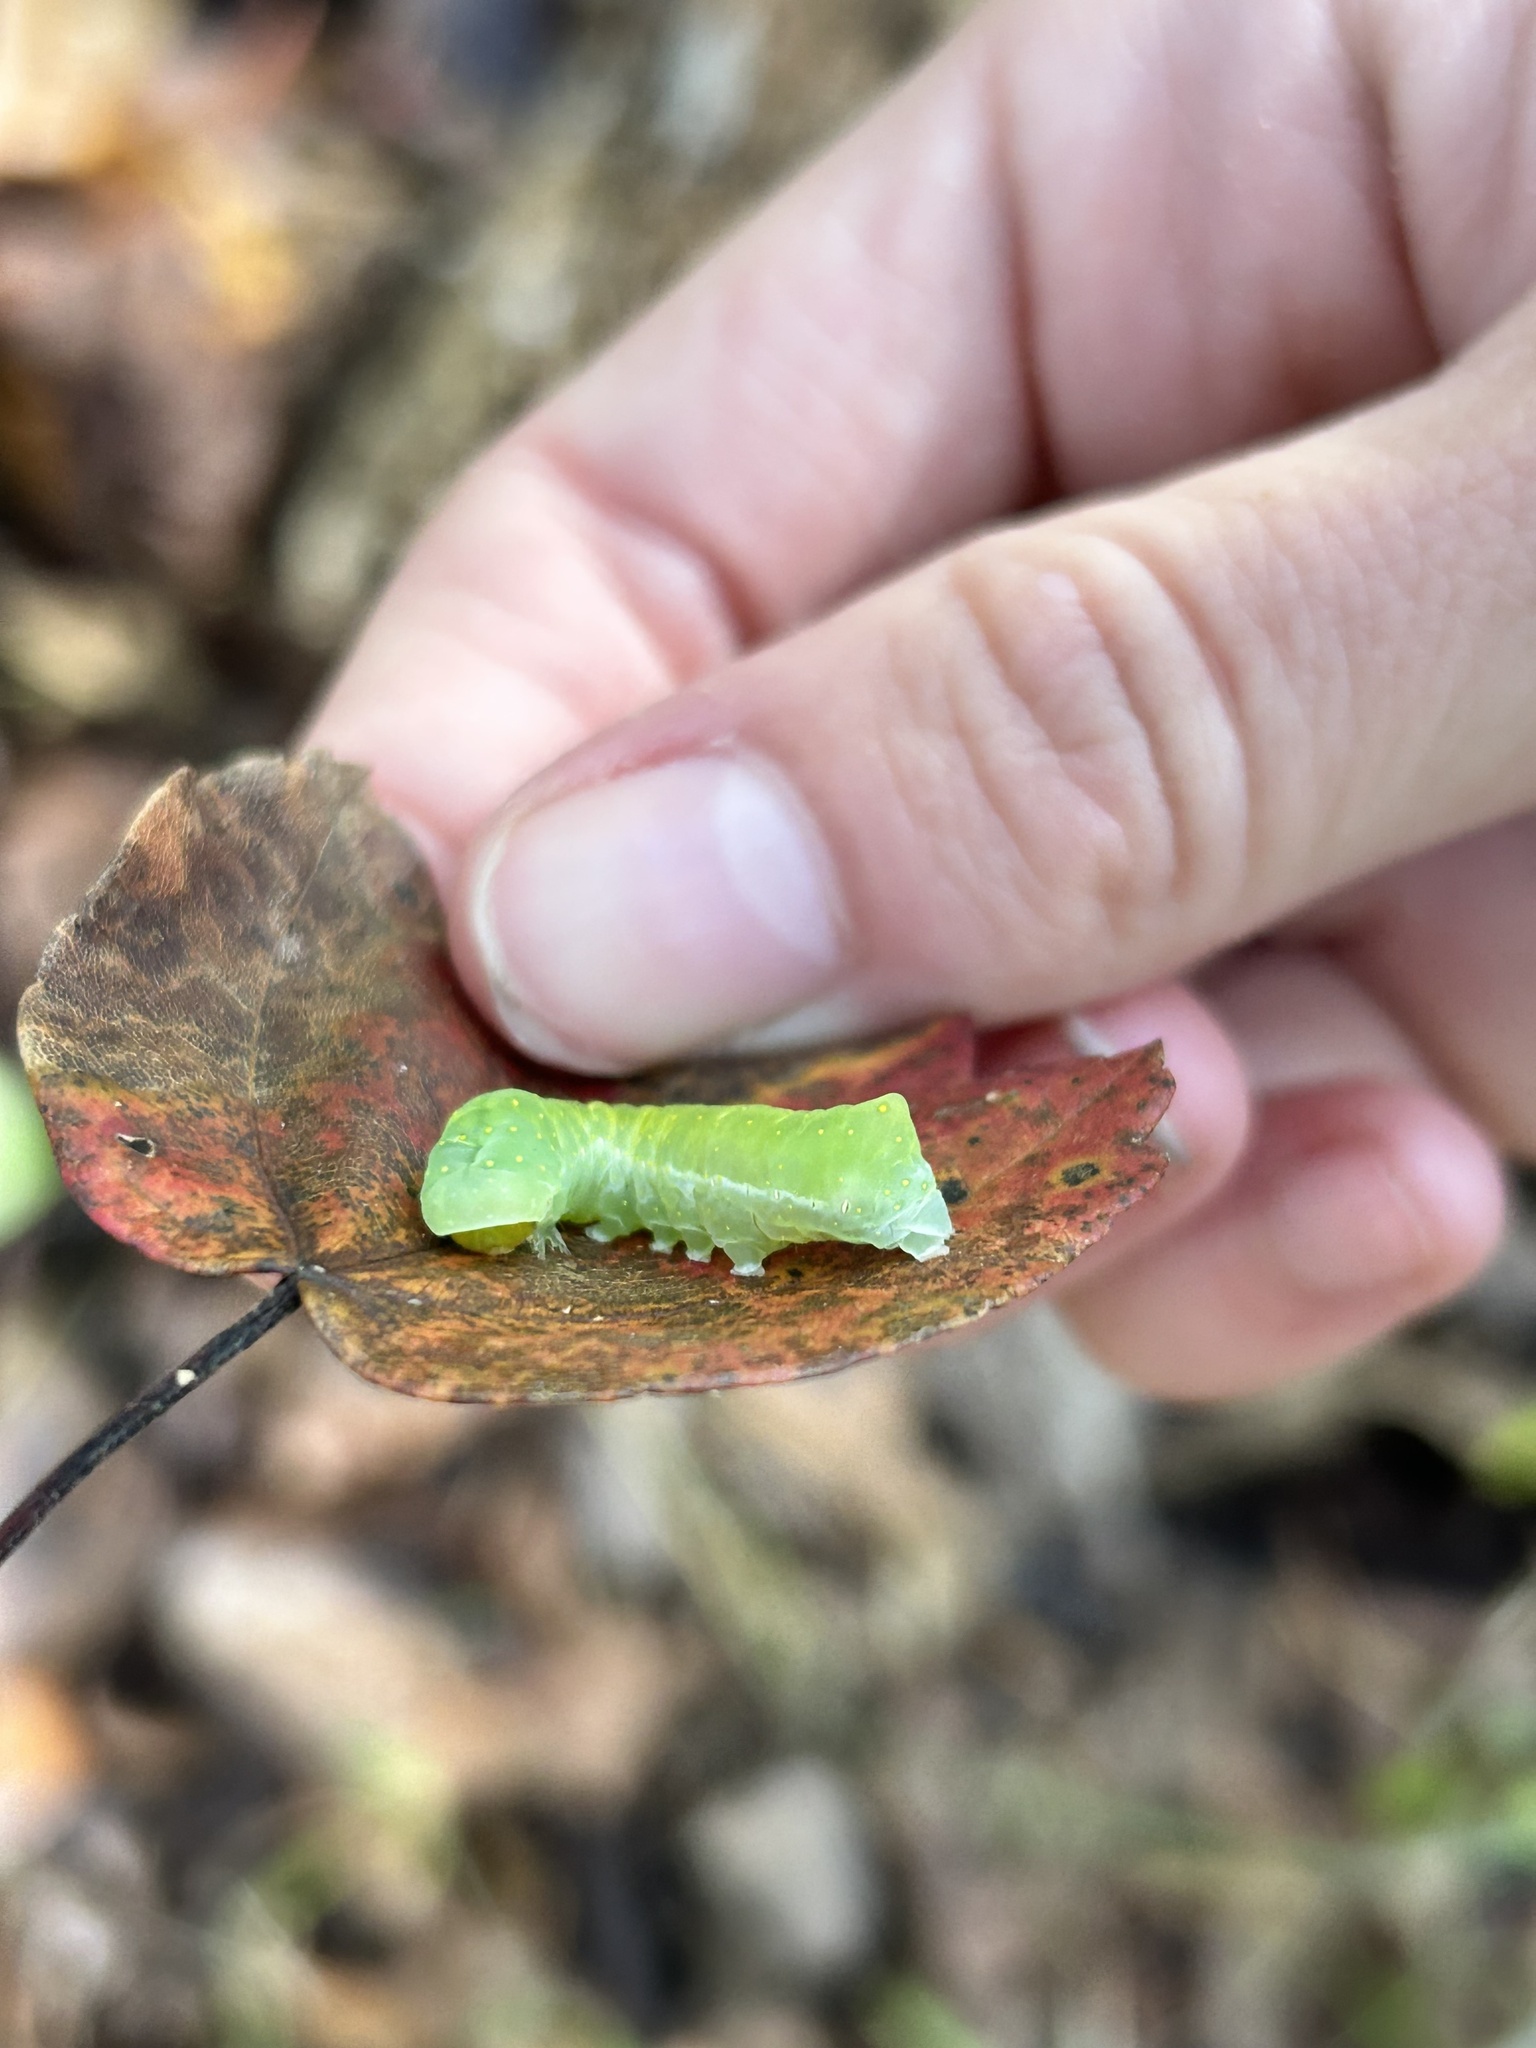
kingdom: Animalia
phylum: Arthropoda
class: Insecta
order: Lepidoptera
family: Noctuidae
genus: Phosphila
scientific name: Phosphila miselioides
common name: Spotted phosphila moth
